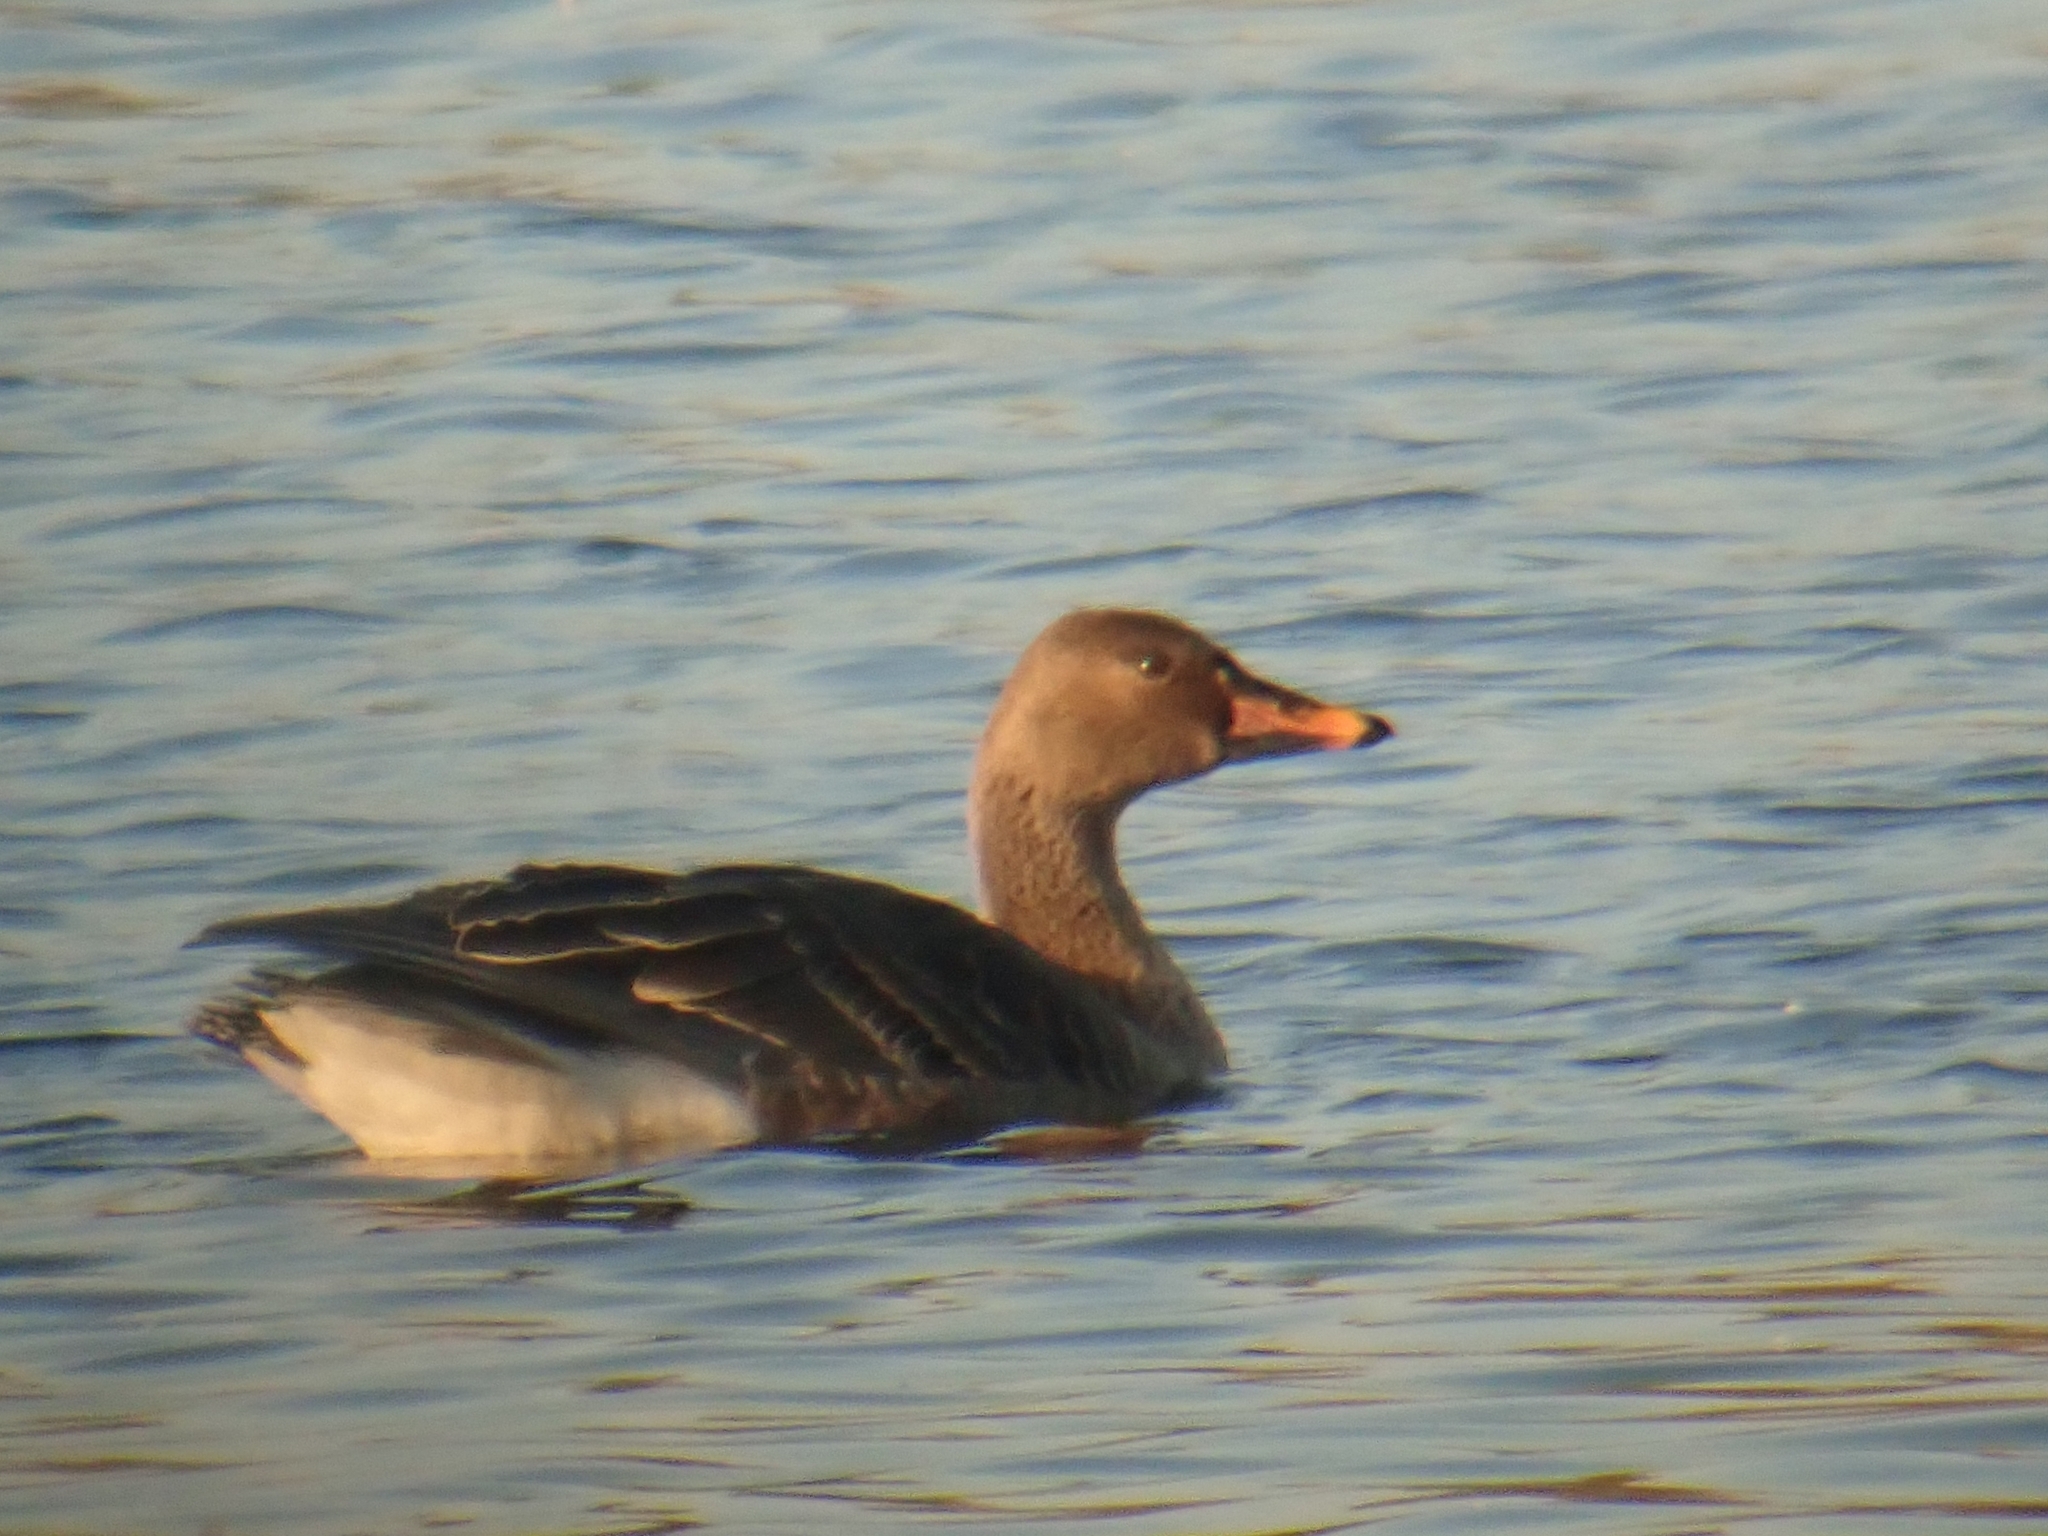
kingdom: Animalia
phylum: Chordata
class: Aves
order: Anseriformes
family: Anatidae
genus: Anser
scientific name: Anser fabalis
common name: Bean goose
